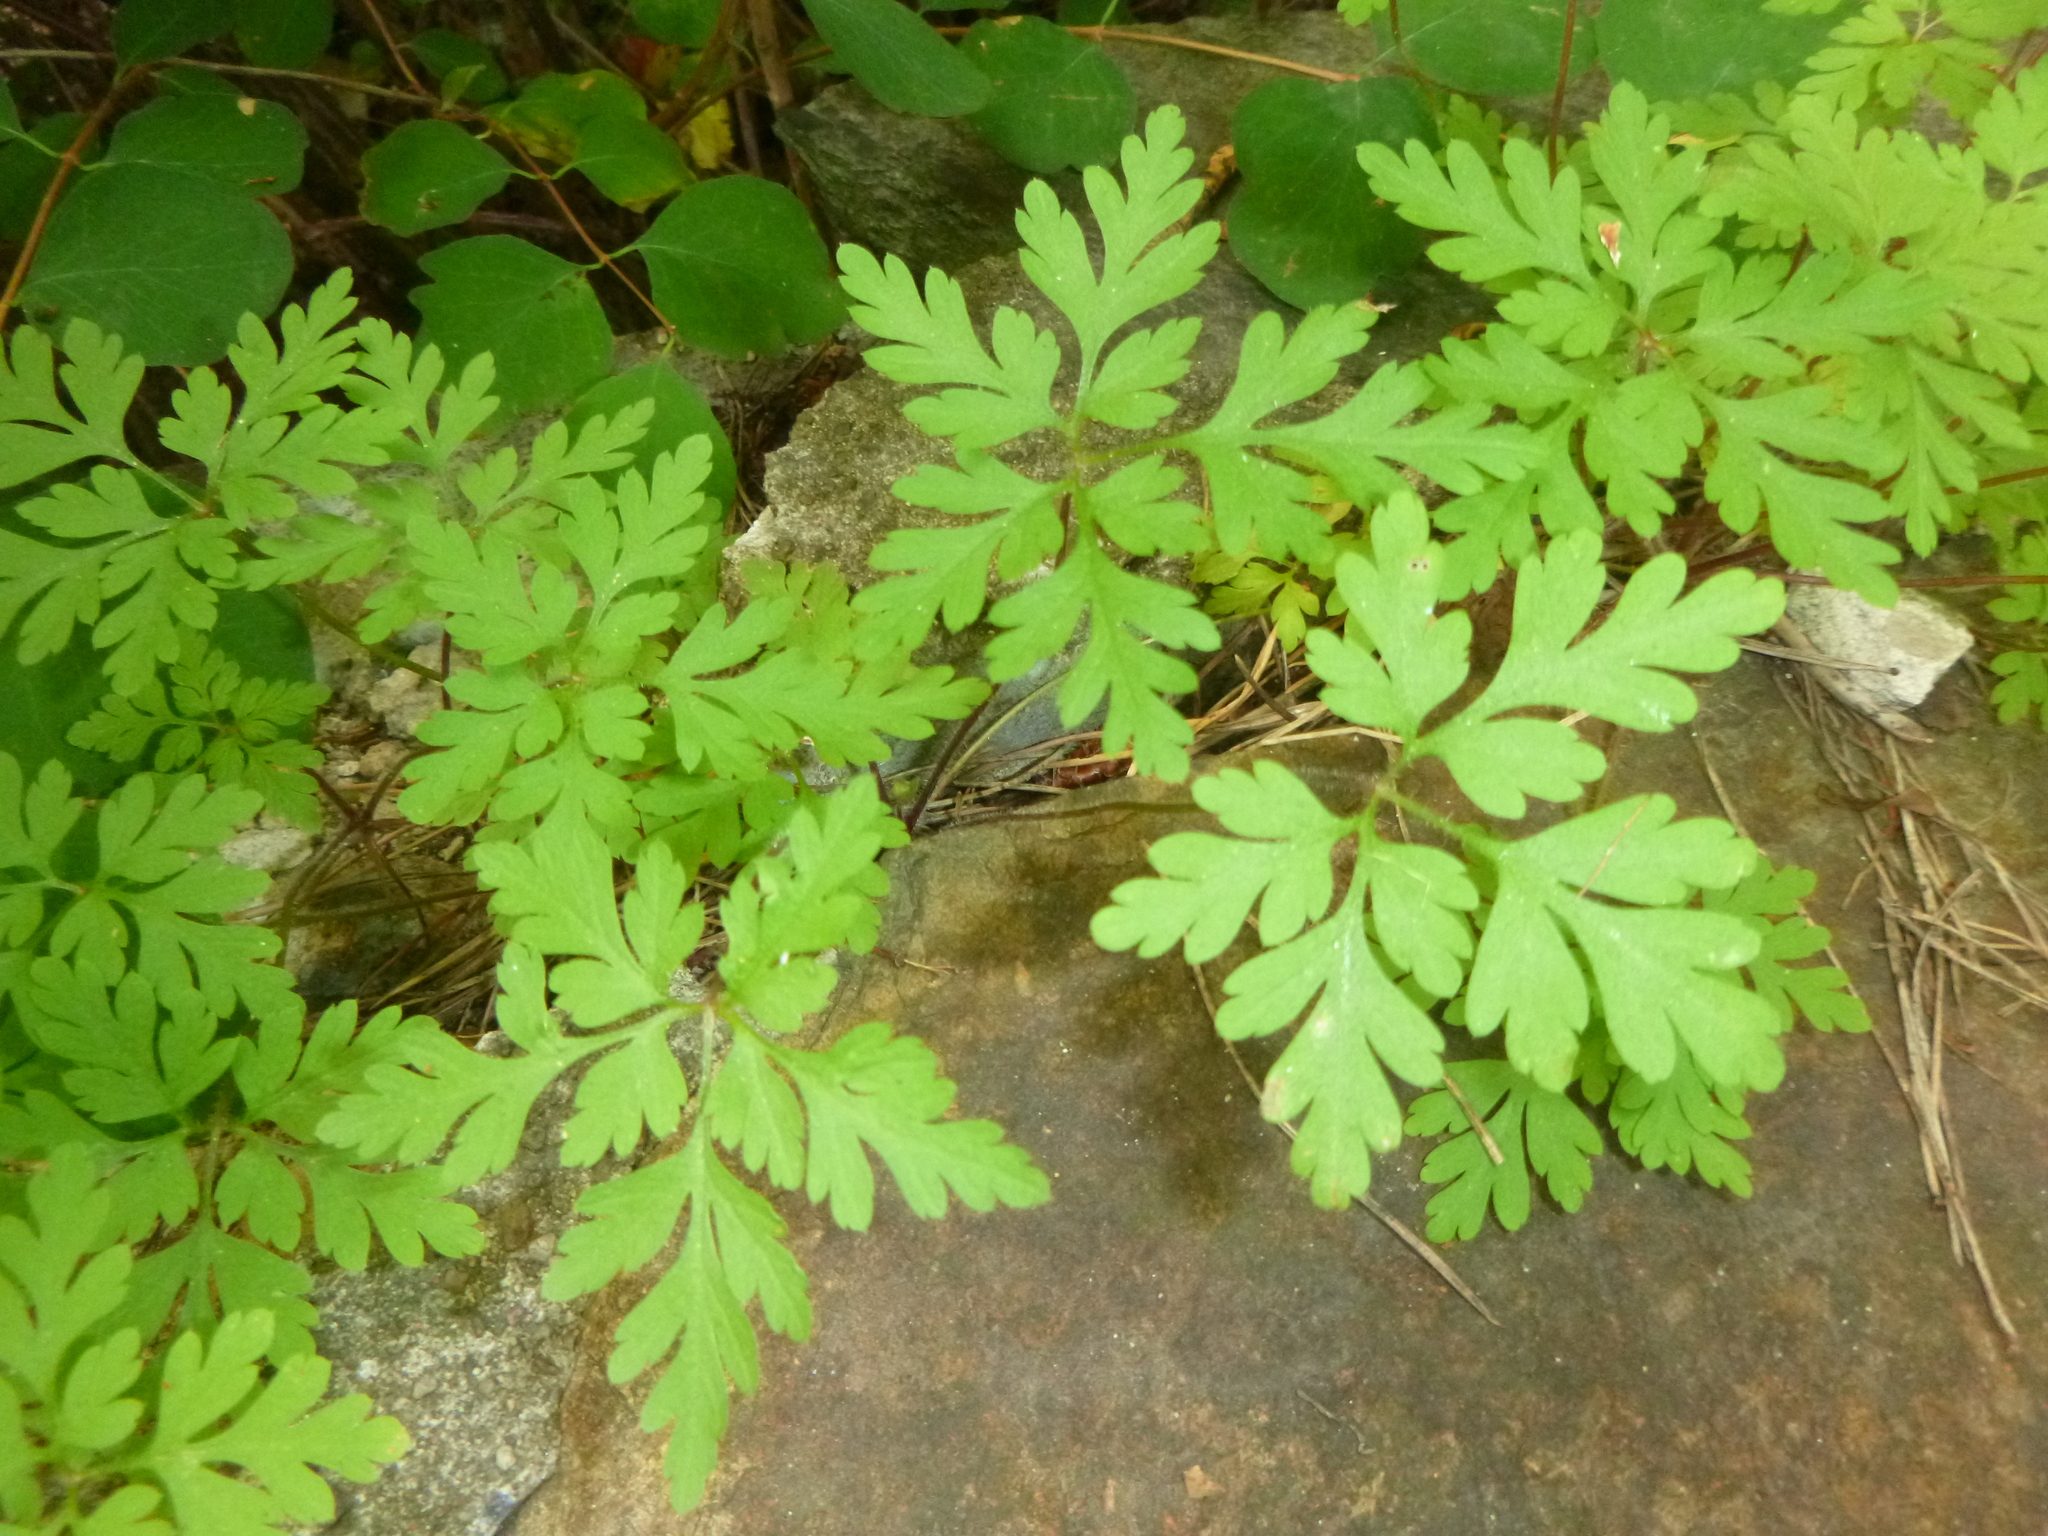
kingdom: Plantae
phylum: Tracheophyta
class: Magnoliopsida
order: Geraniales
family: Geraniaceae
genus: Geranium
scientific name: Geranium robertianum
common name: Herb-robert
